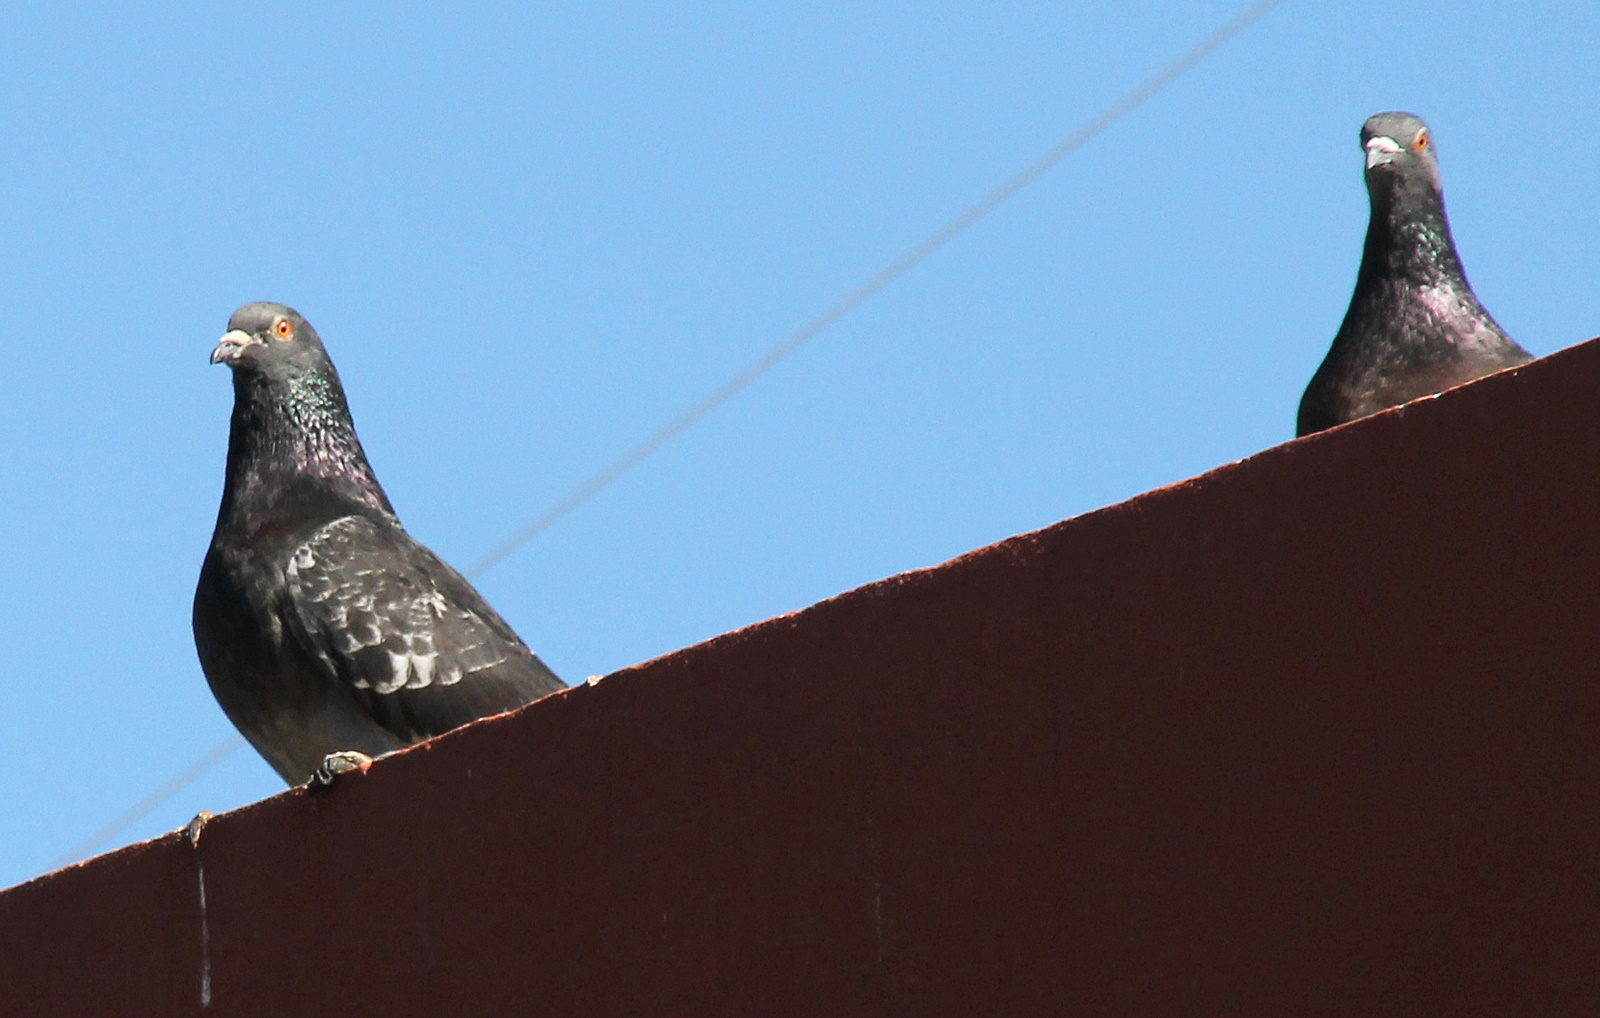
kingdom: Animalia
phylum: Chordata
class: Aves
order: Columbiformes
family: Columbidae
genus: Columba
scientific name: Columba livia
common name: Rock pigeon
